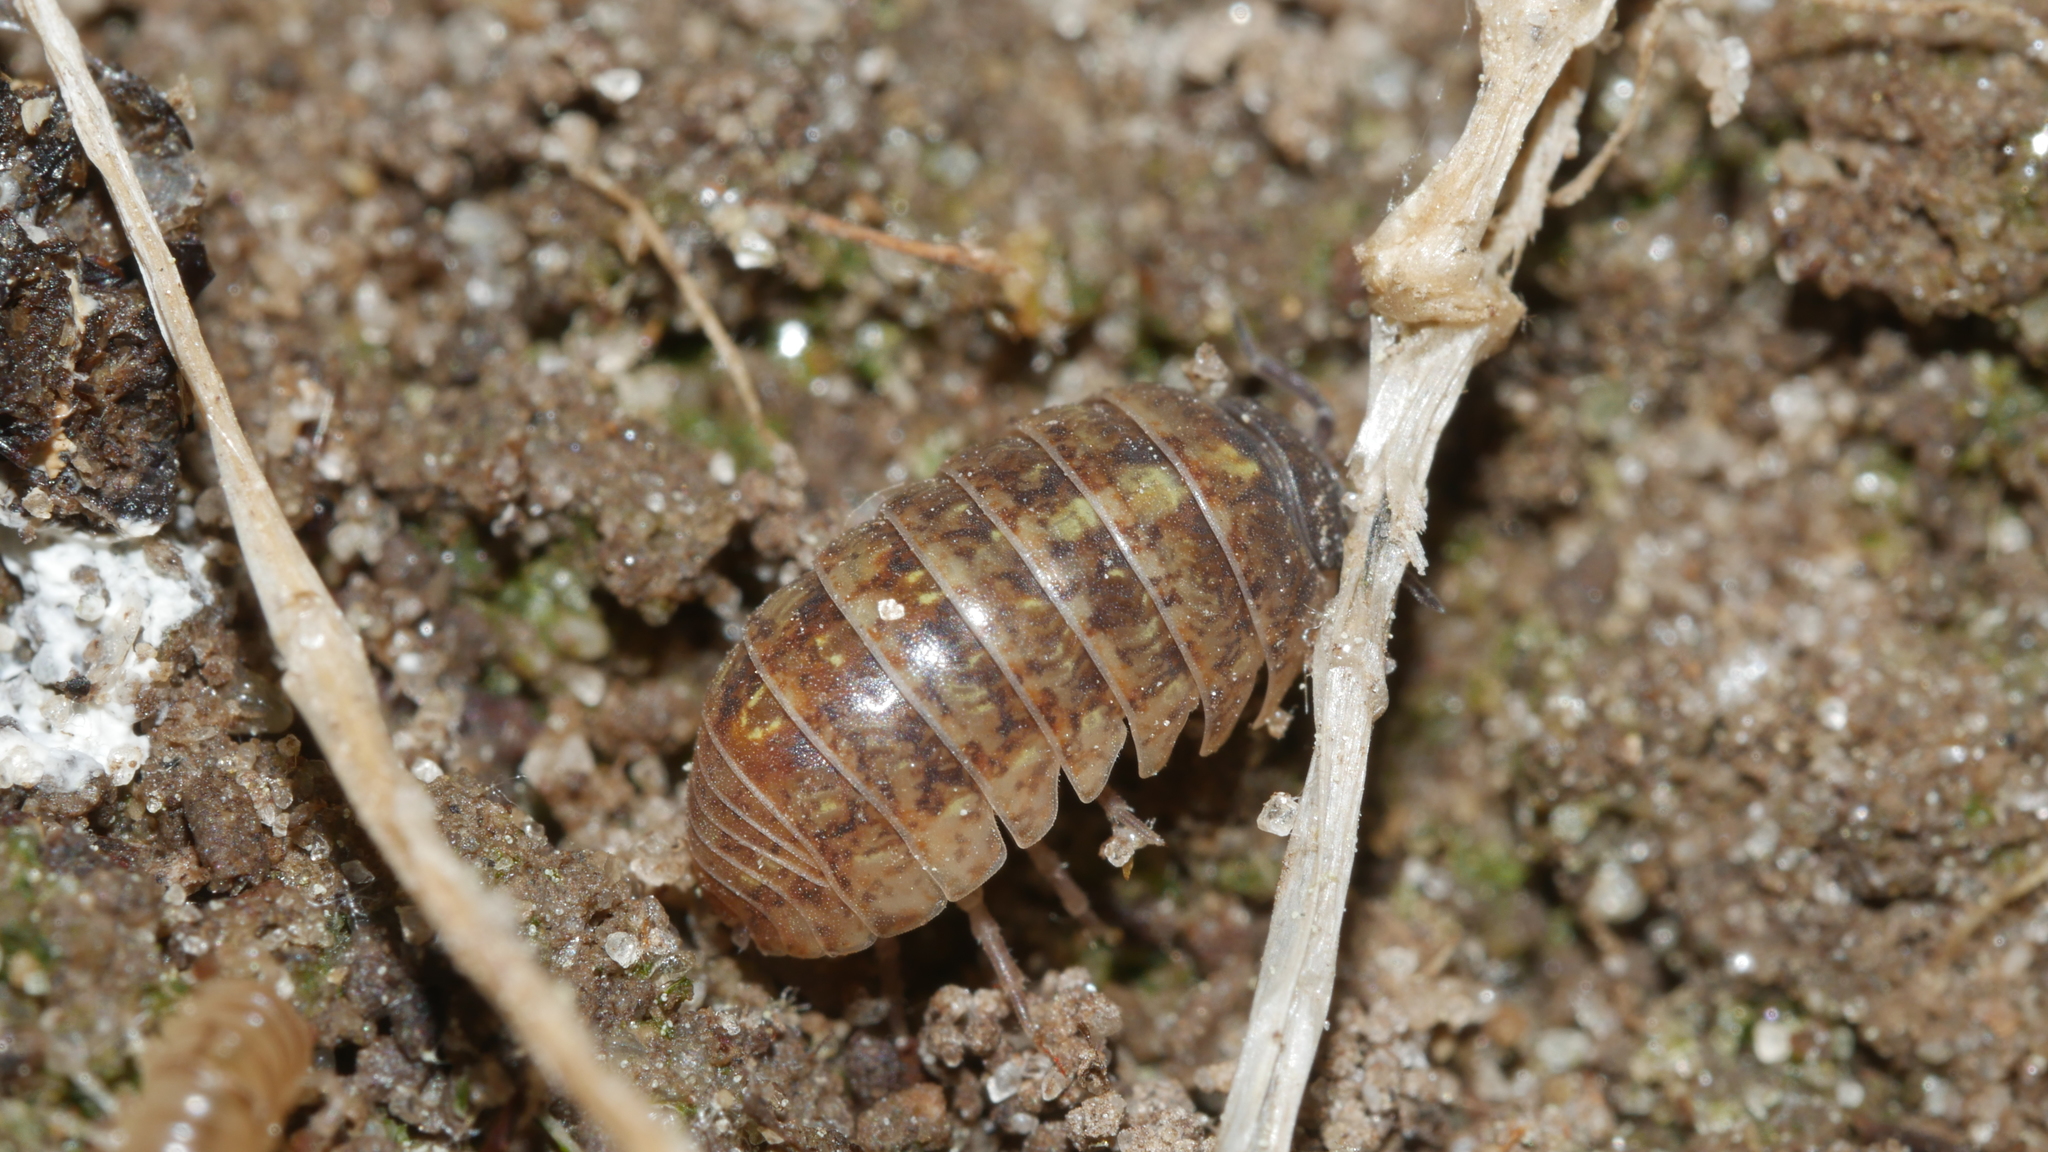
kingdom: Animalia
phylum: Arthropoda
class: Malacostraca
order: Isopoda
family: Armadillidiidae
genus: Armadillidium
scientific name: Armadillidium vulgare
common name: Common pill woodlouse
